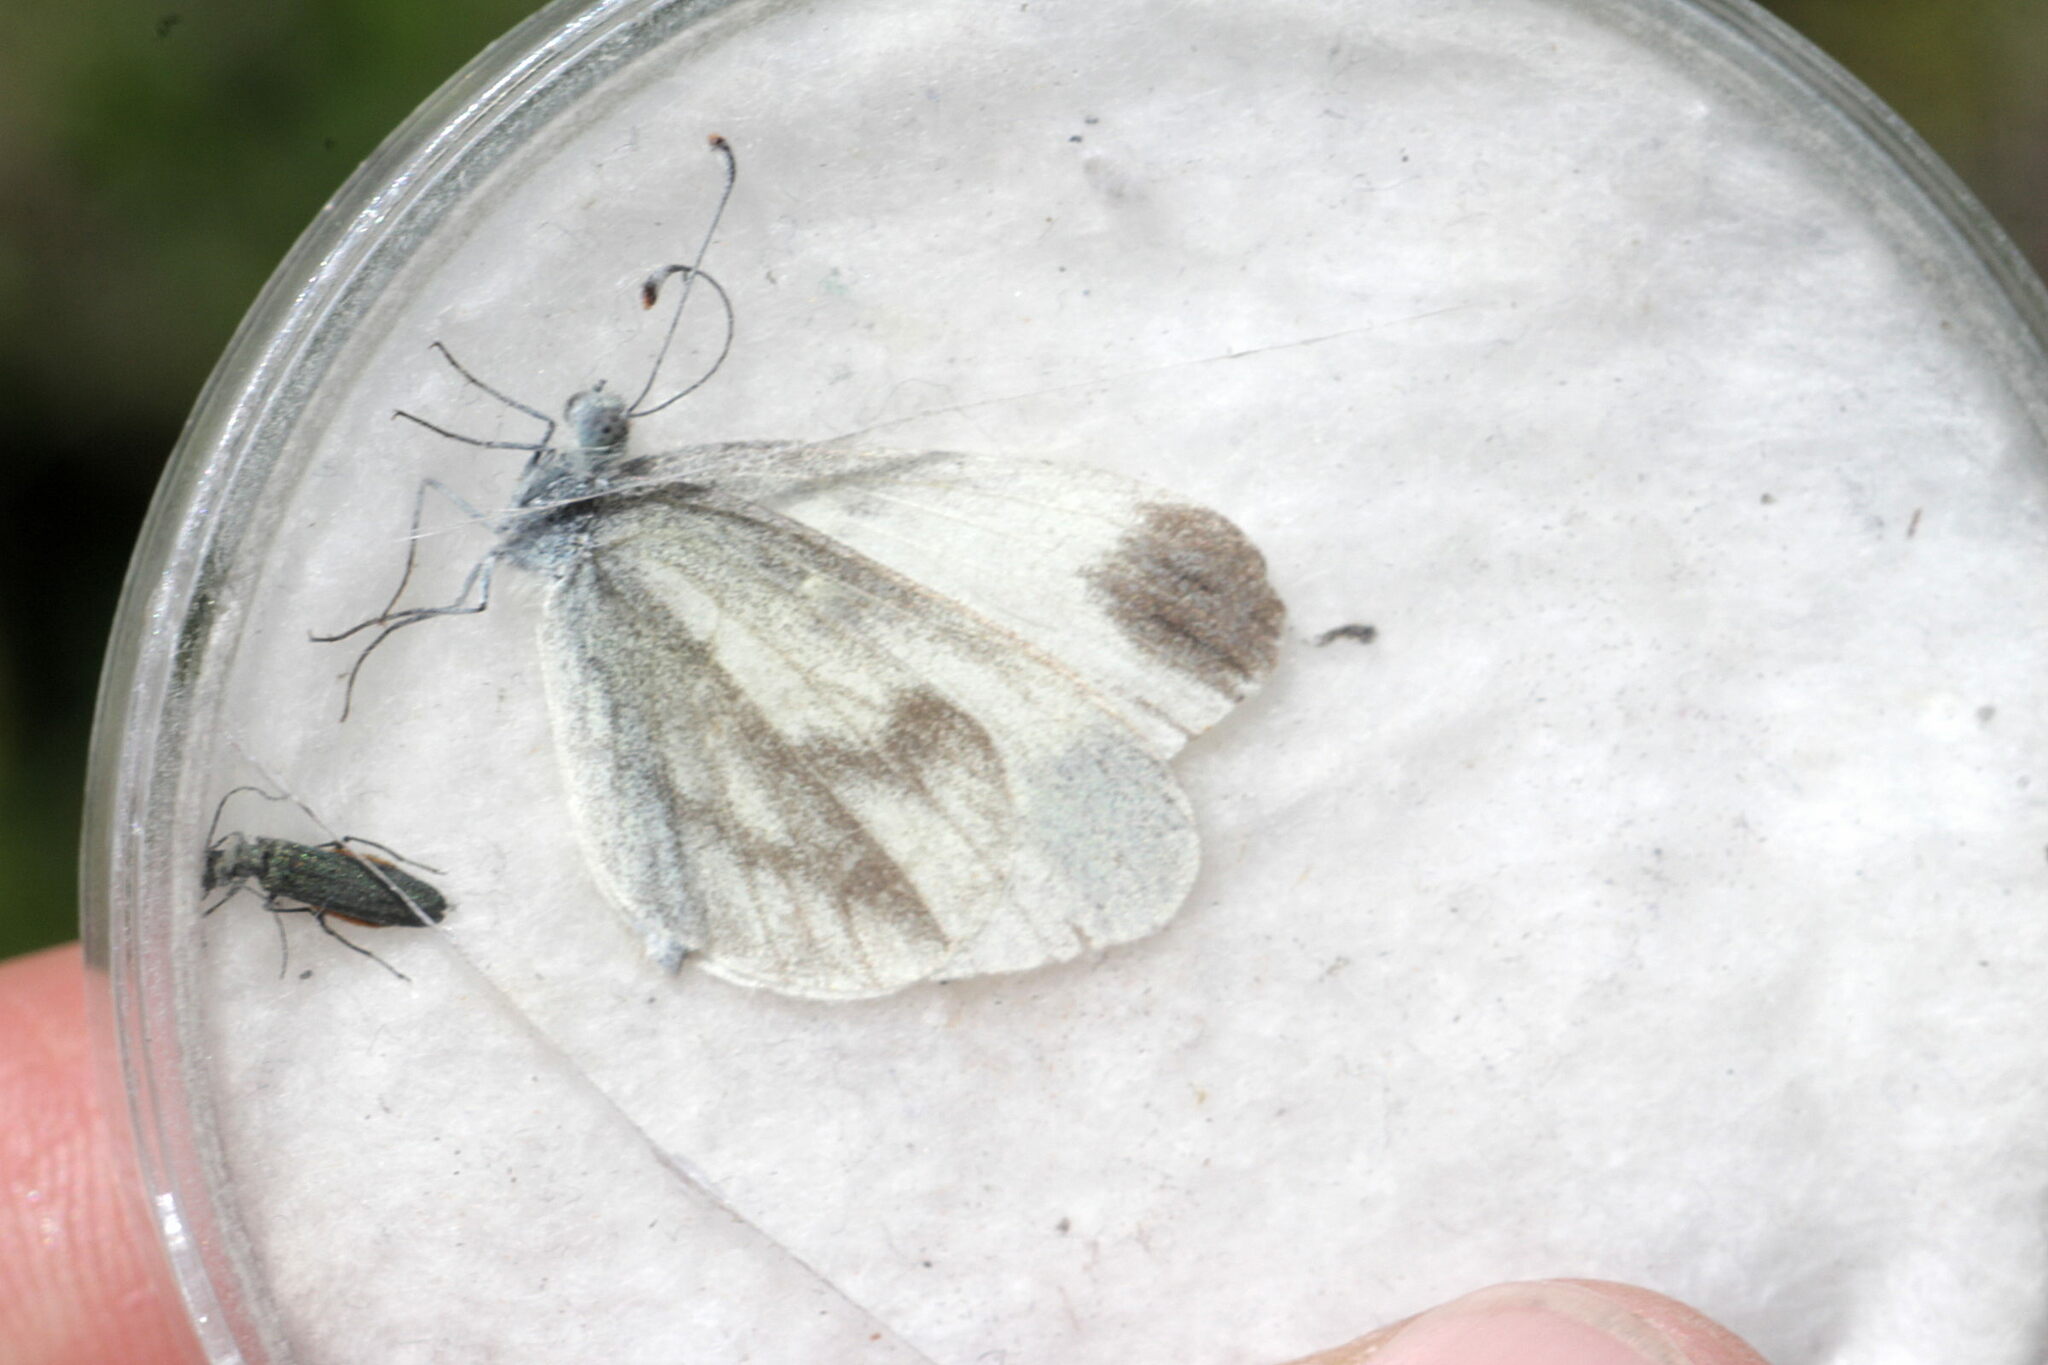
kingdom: Animalia
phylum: Arthropoda
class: Insecta
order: Lepidoptera
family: Pieridae
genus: Leptidea
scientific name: Leptidea
